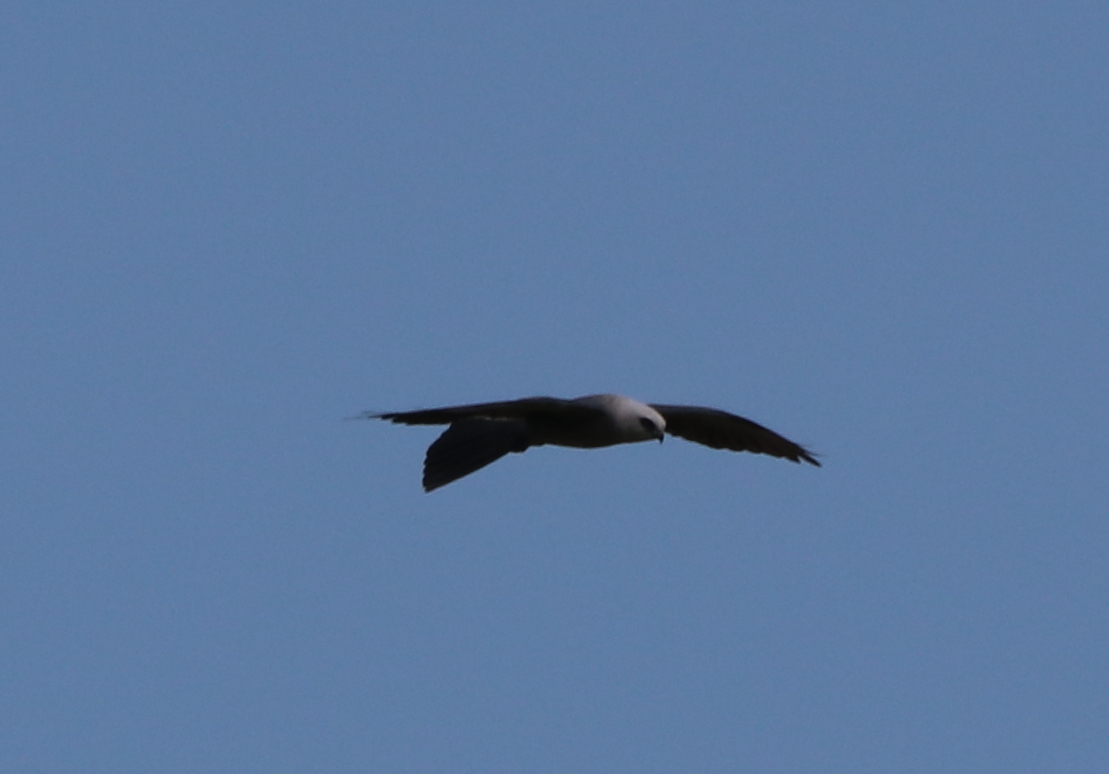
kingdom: Animalia
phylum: Chordata
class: Aves
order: Accipitriformes
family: Accipitridae
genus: Ictinia
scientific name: Ictinia mississippiensis
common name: Mississippi kite
